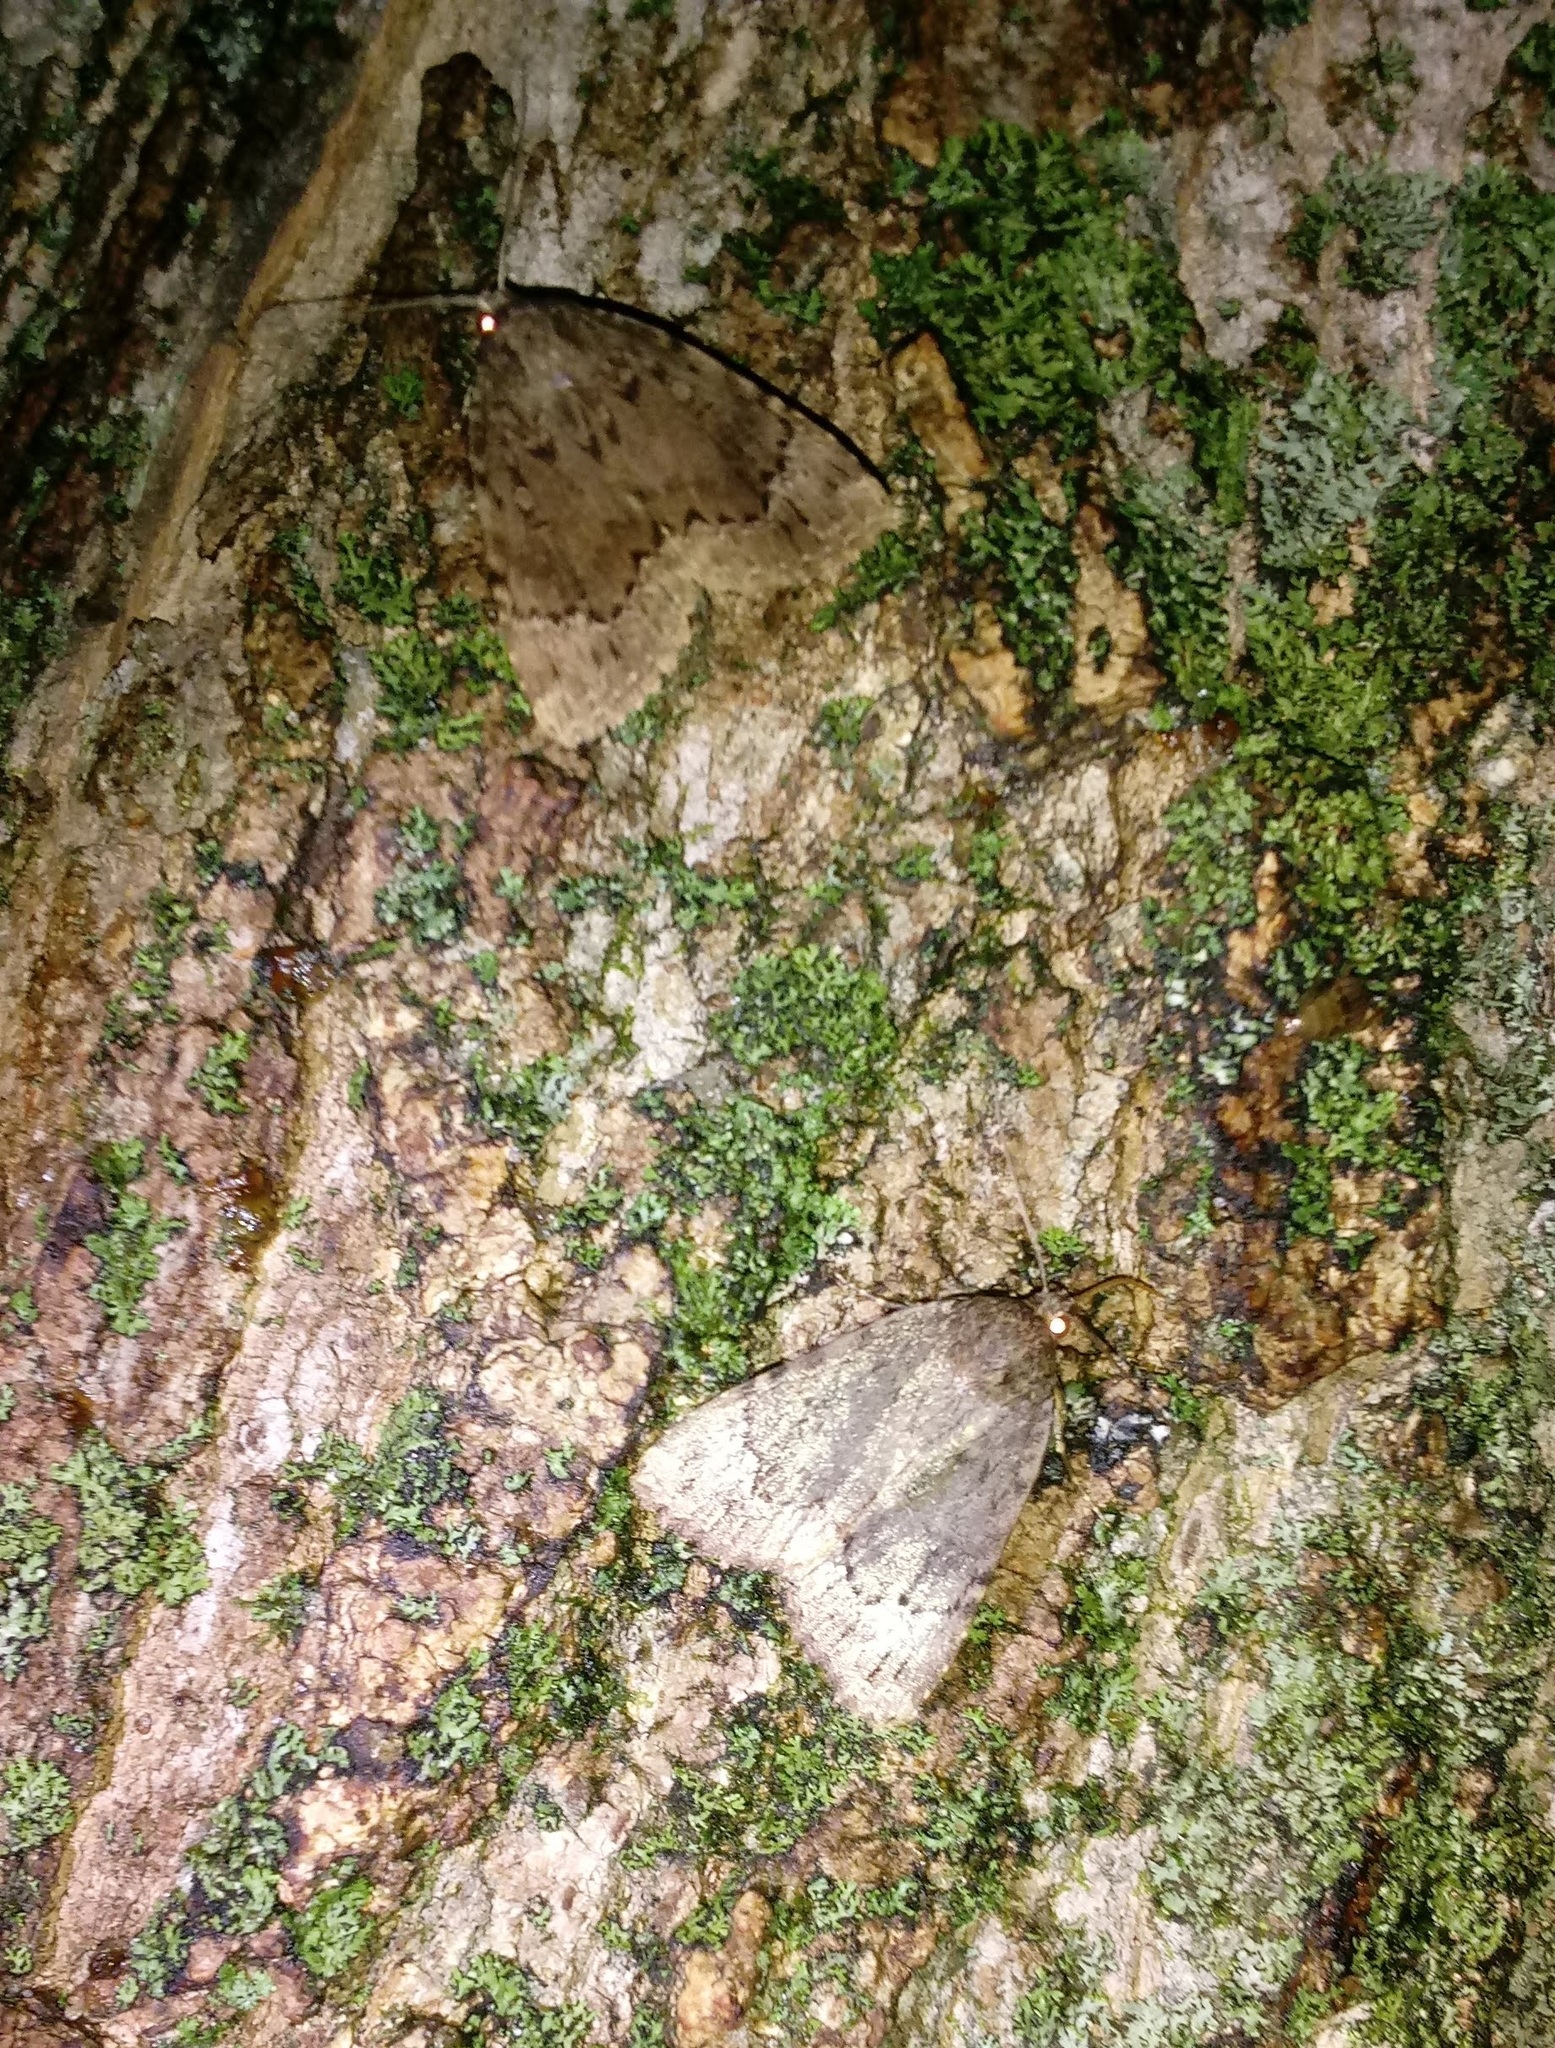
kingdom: Animalia
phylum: Arthropoda
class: Insecta
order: Lepidoptera
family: Noctuidae
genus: Amphipyra
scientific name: Amphipyra pyramidoides
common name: American copper underwing
